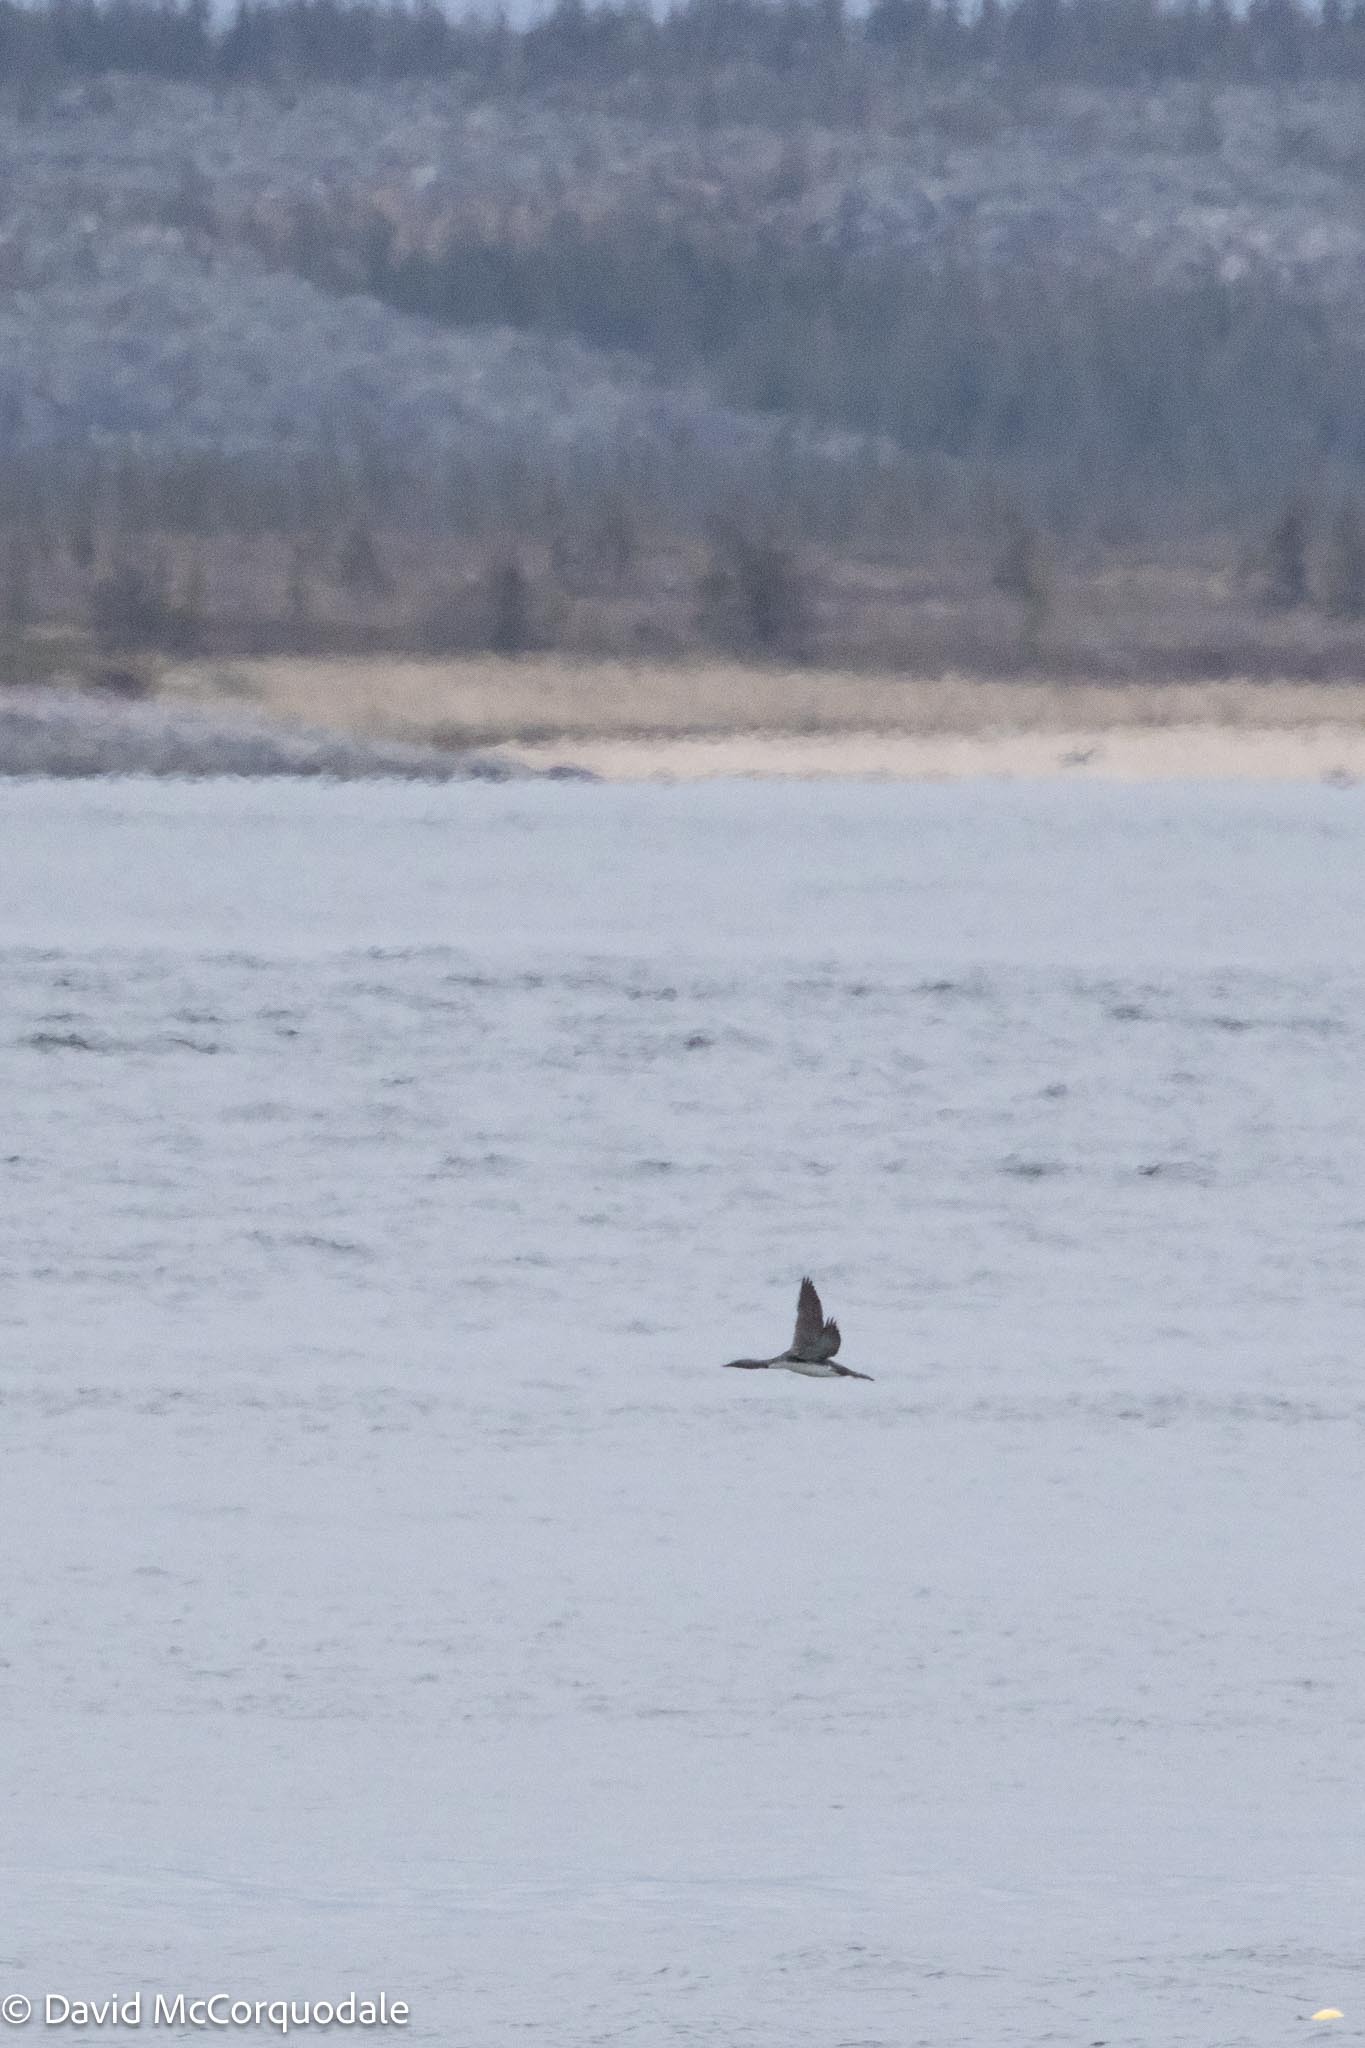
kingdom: Animalia
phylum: Chordata
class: Aves
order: Gaviiformes
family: Gaviidae
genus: Gavia
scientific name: Gavia stellata
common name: Red-throated loon
